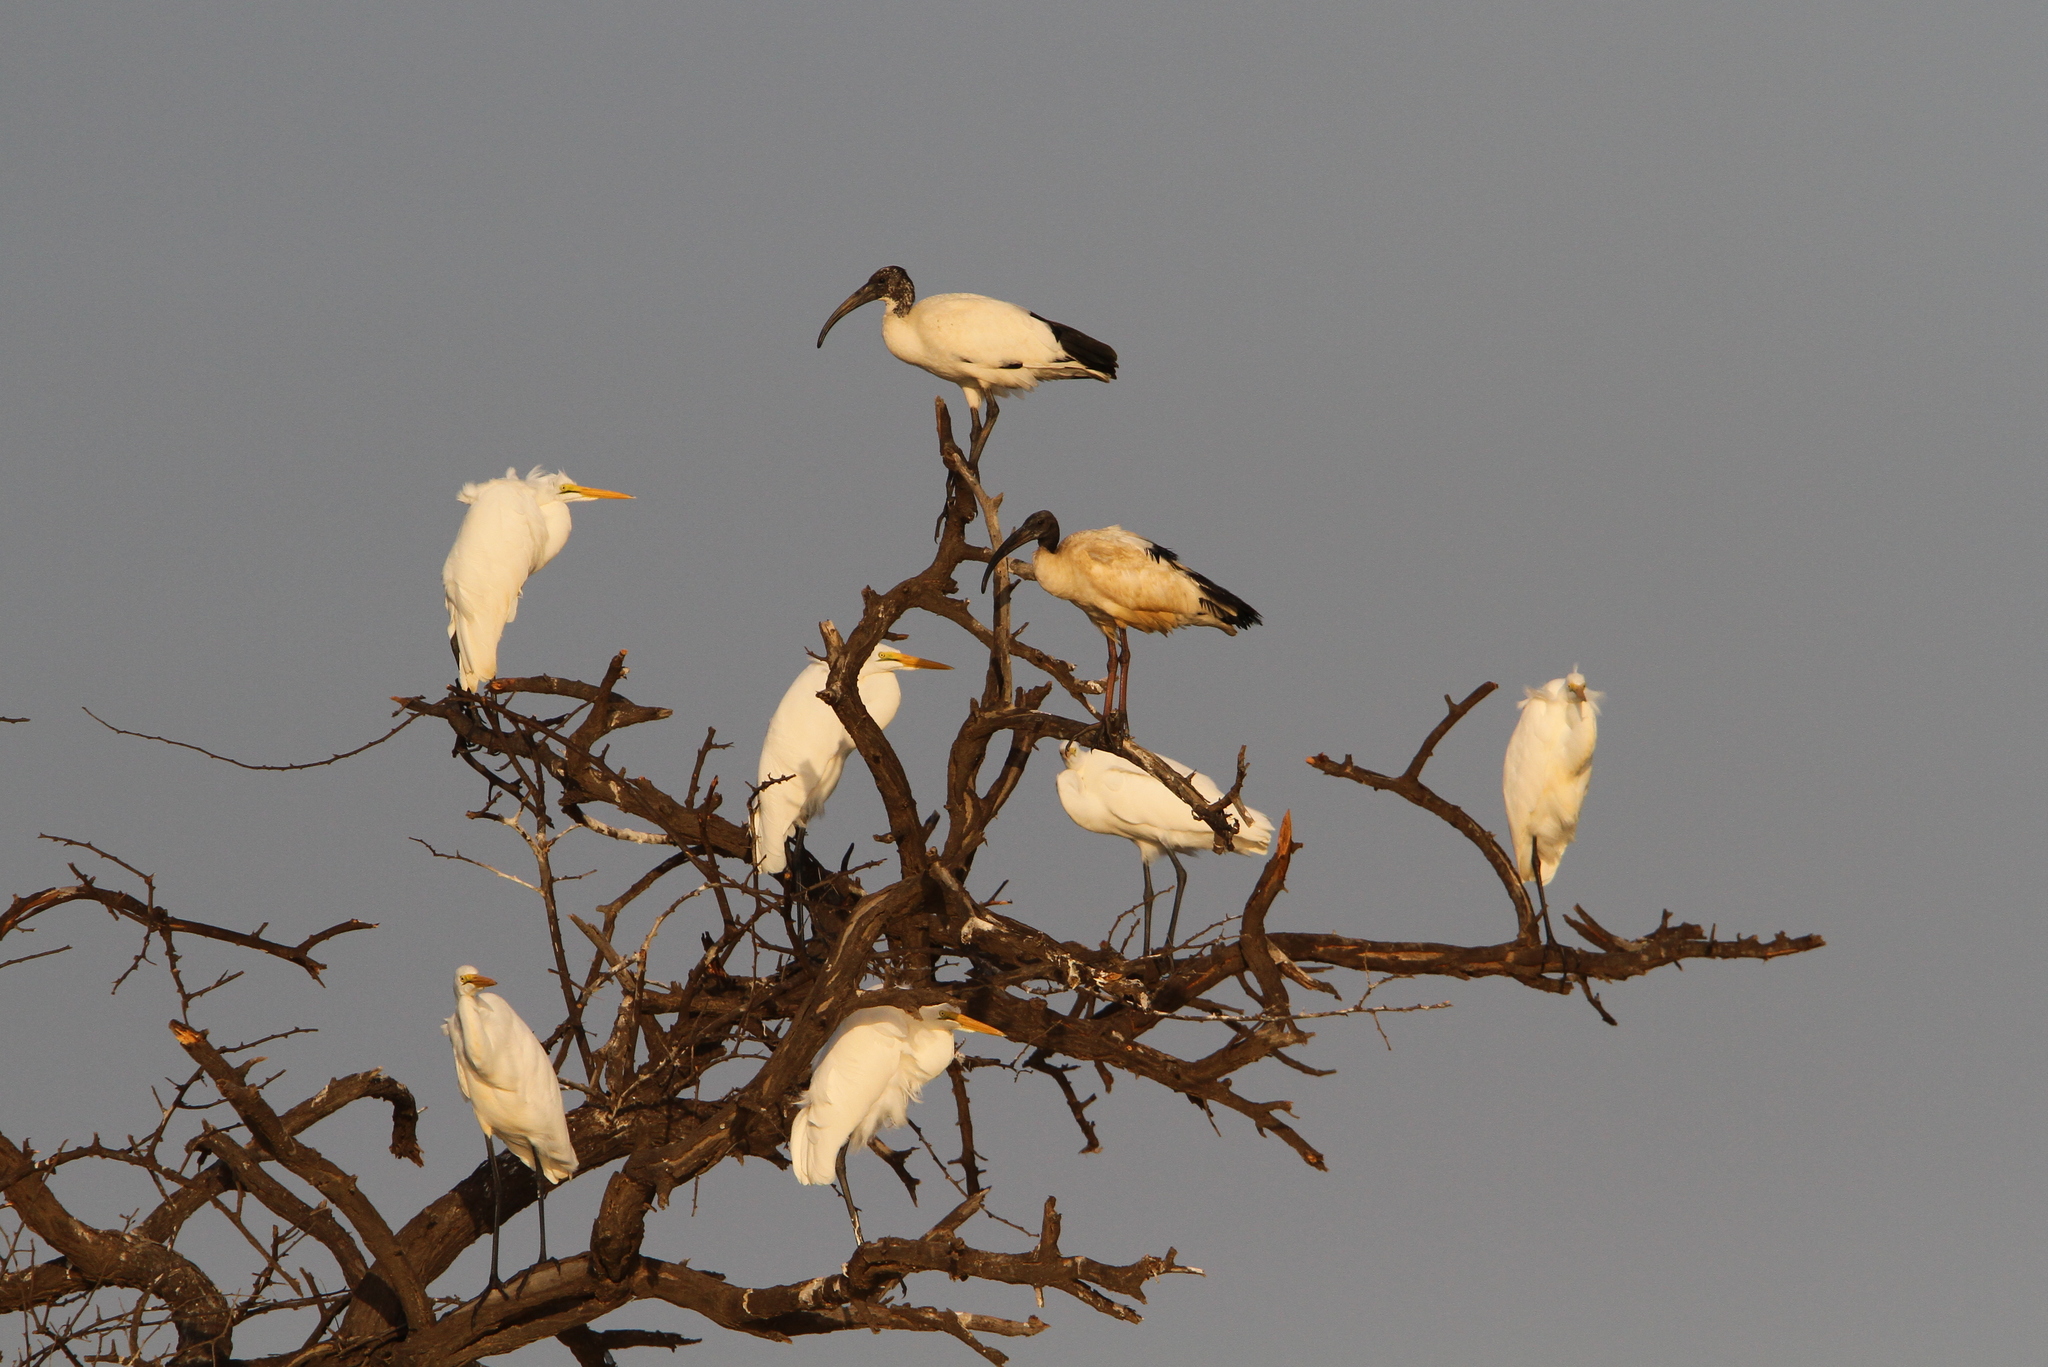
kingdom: Animalia
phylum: Chordata
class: Aves
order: Pelecaniformes
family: Threskiornithidae
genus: Threskiornis
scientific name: Threskiornis aethiopicus
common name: Sacred ibis
